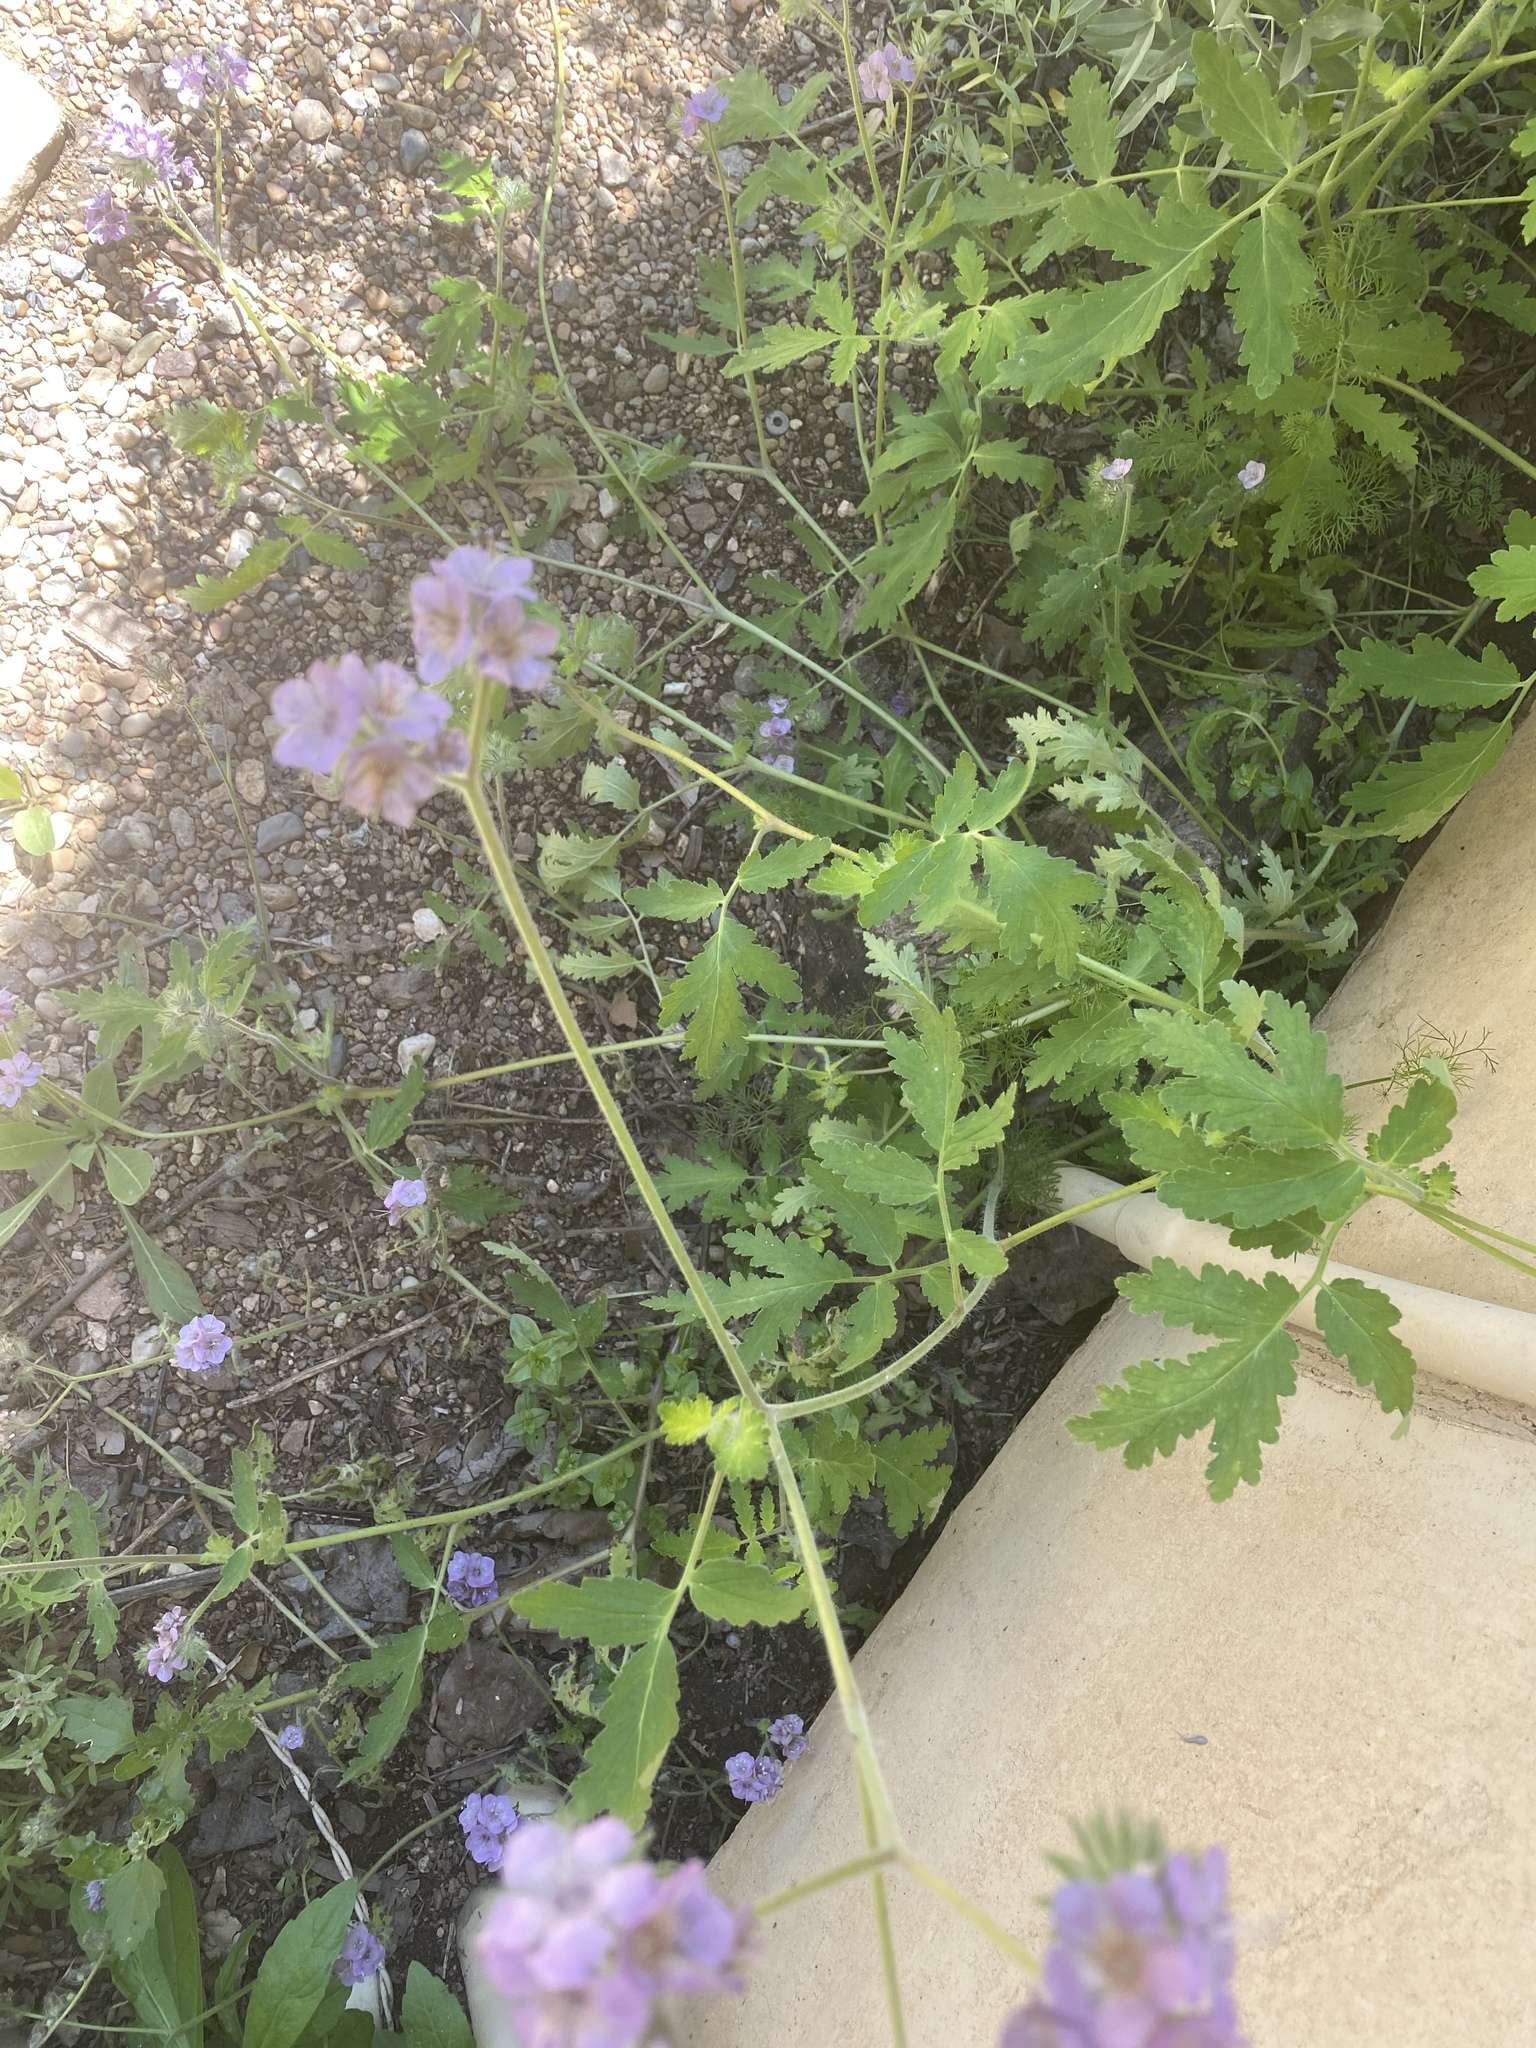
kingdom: Plantae
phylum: Tracheophyta
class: Magnoliopsida
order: Boraginales
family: Hydrophyllaceae
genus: Phacelia
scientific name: Phacelia cicutaria
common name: Caterpillar phacelia
